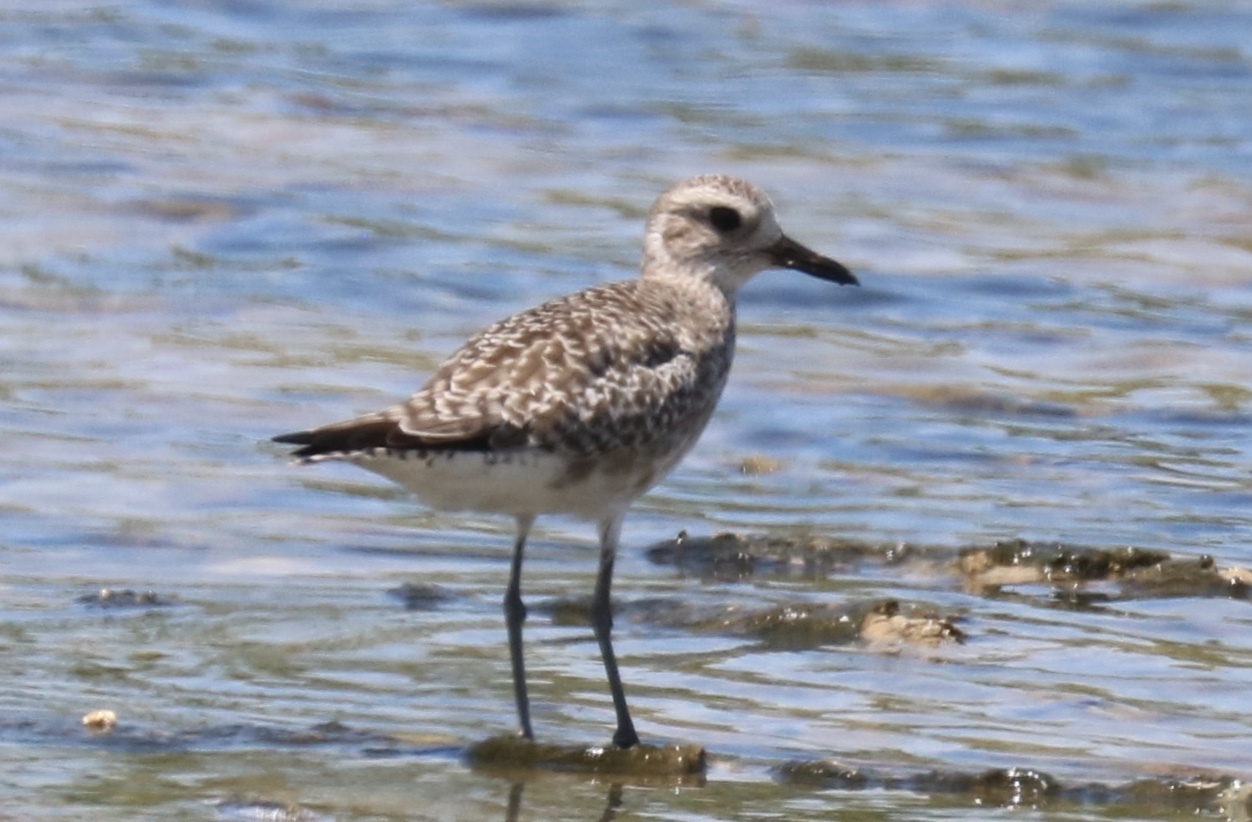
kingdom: Animalia
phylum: Chordata
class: Aves
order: Charadriiformes
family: Charadriidae
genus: Pluvialis
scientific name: Pluvialis squatarola
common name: Grey plover
